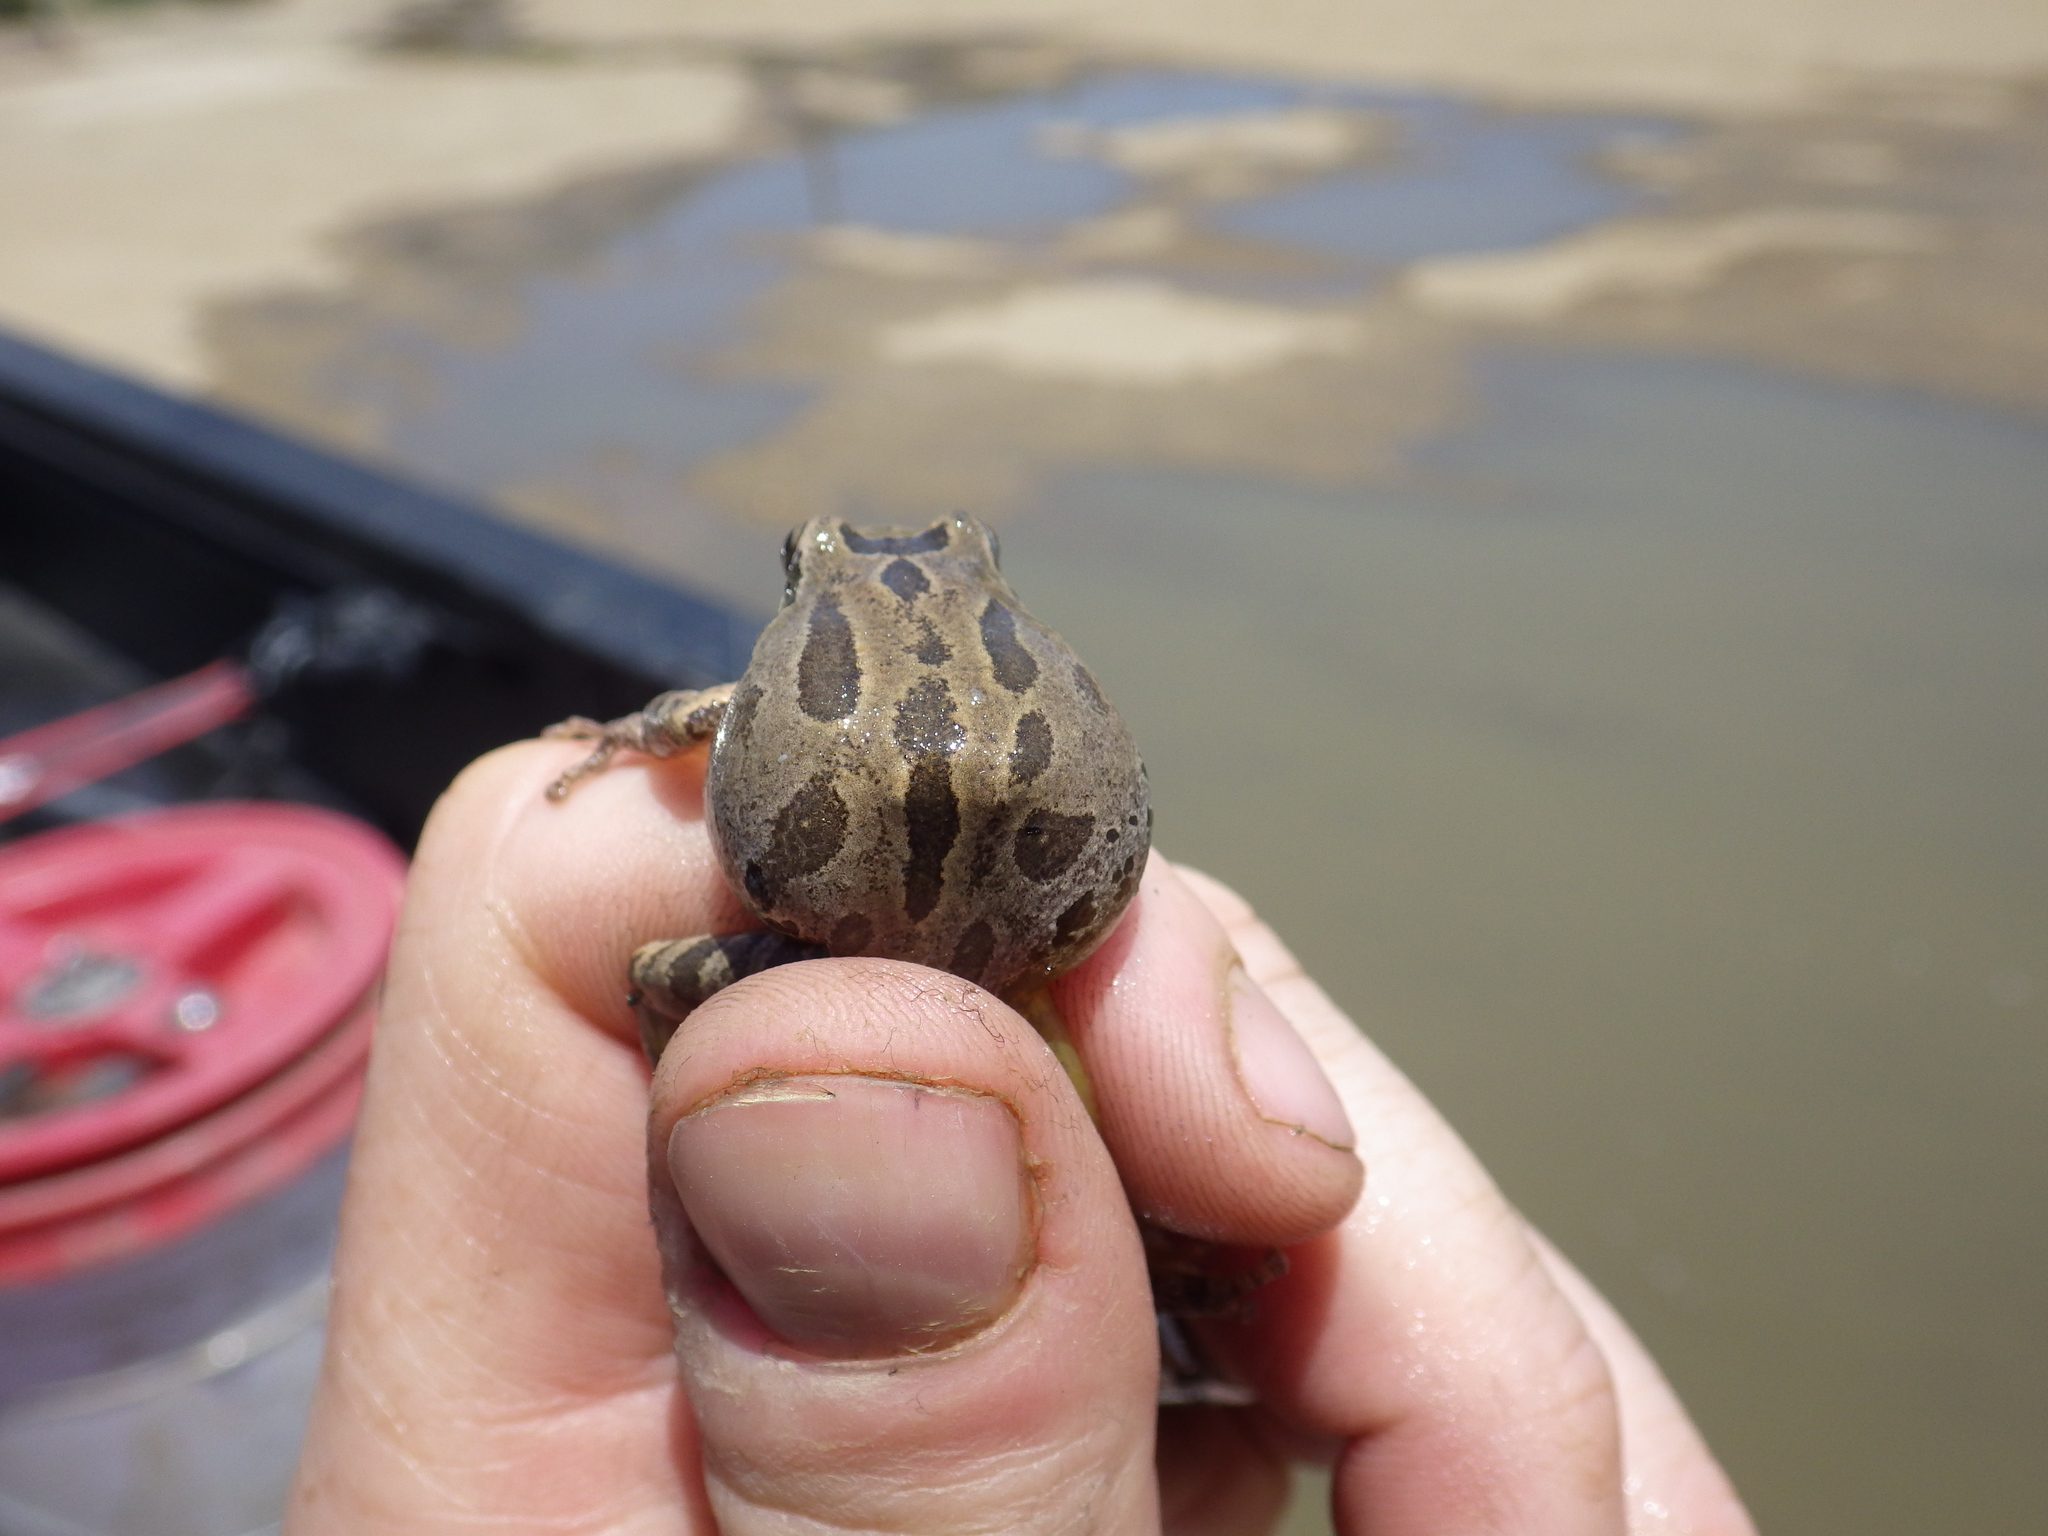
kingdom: Animalia
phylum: Chordata
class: Amphibia
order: Anura
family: Hylidae
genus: Pseudacris
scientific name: Pseudacris regilla
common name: Pacific chorus frog
